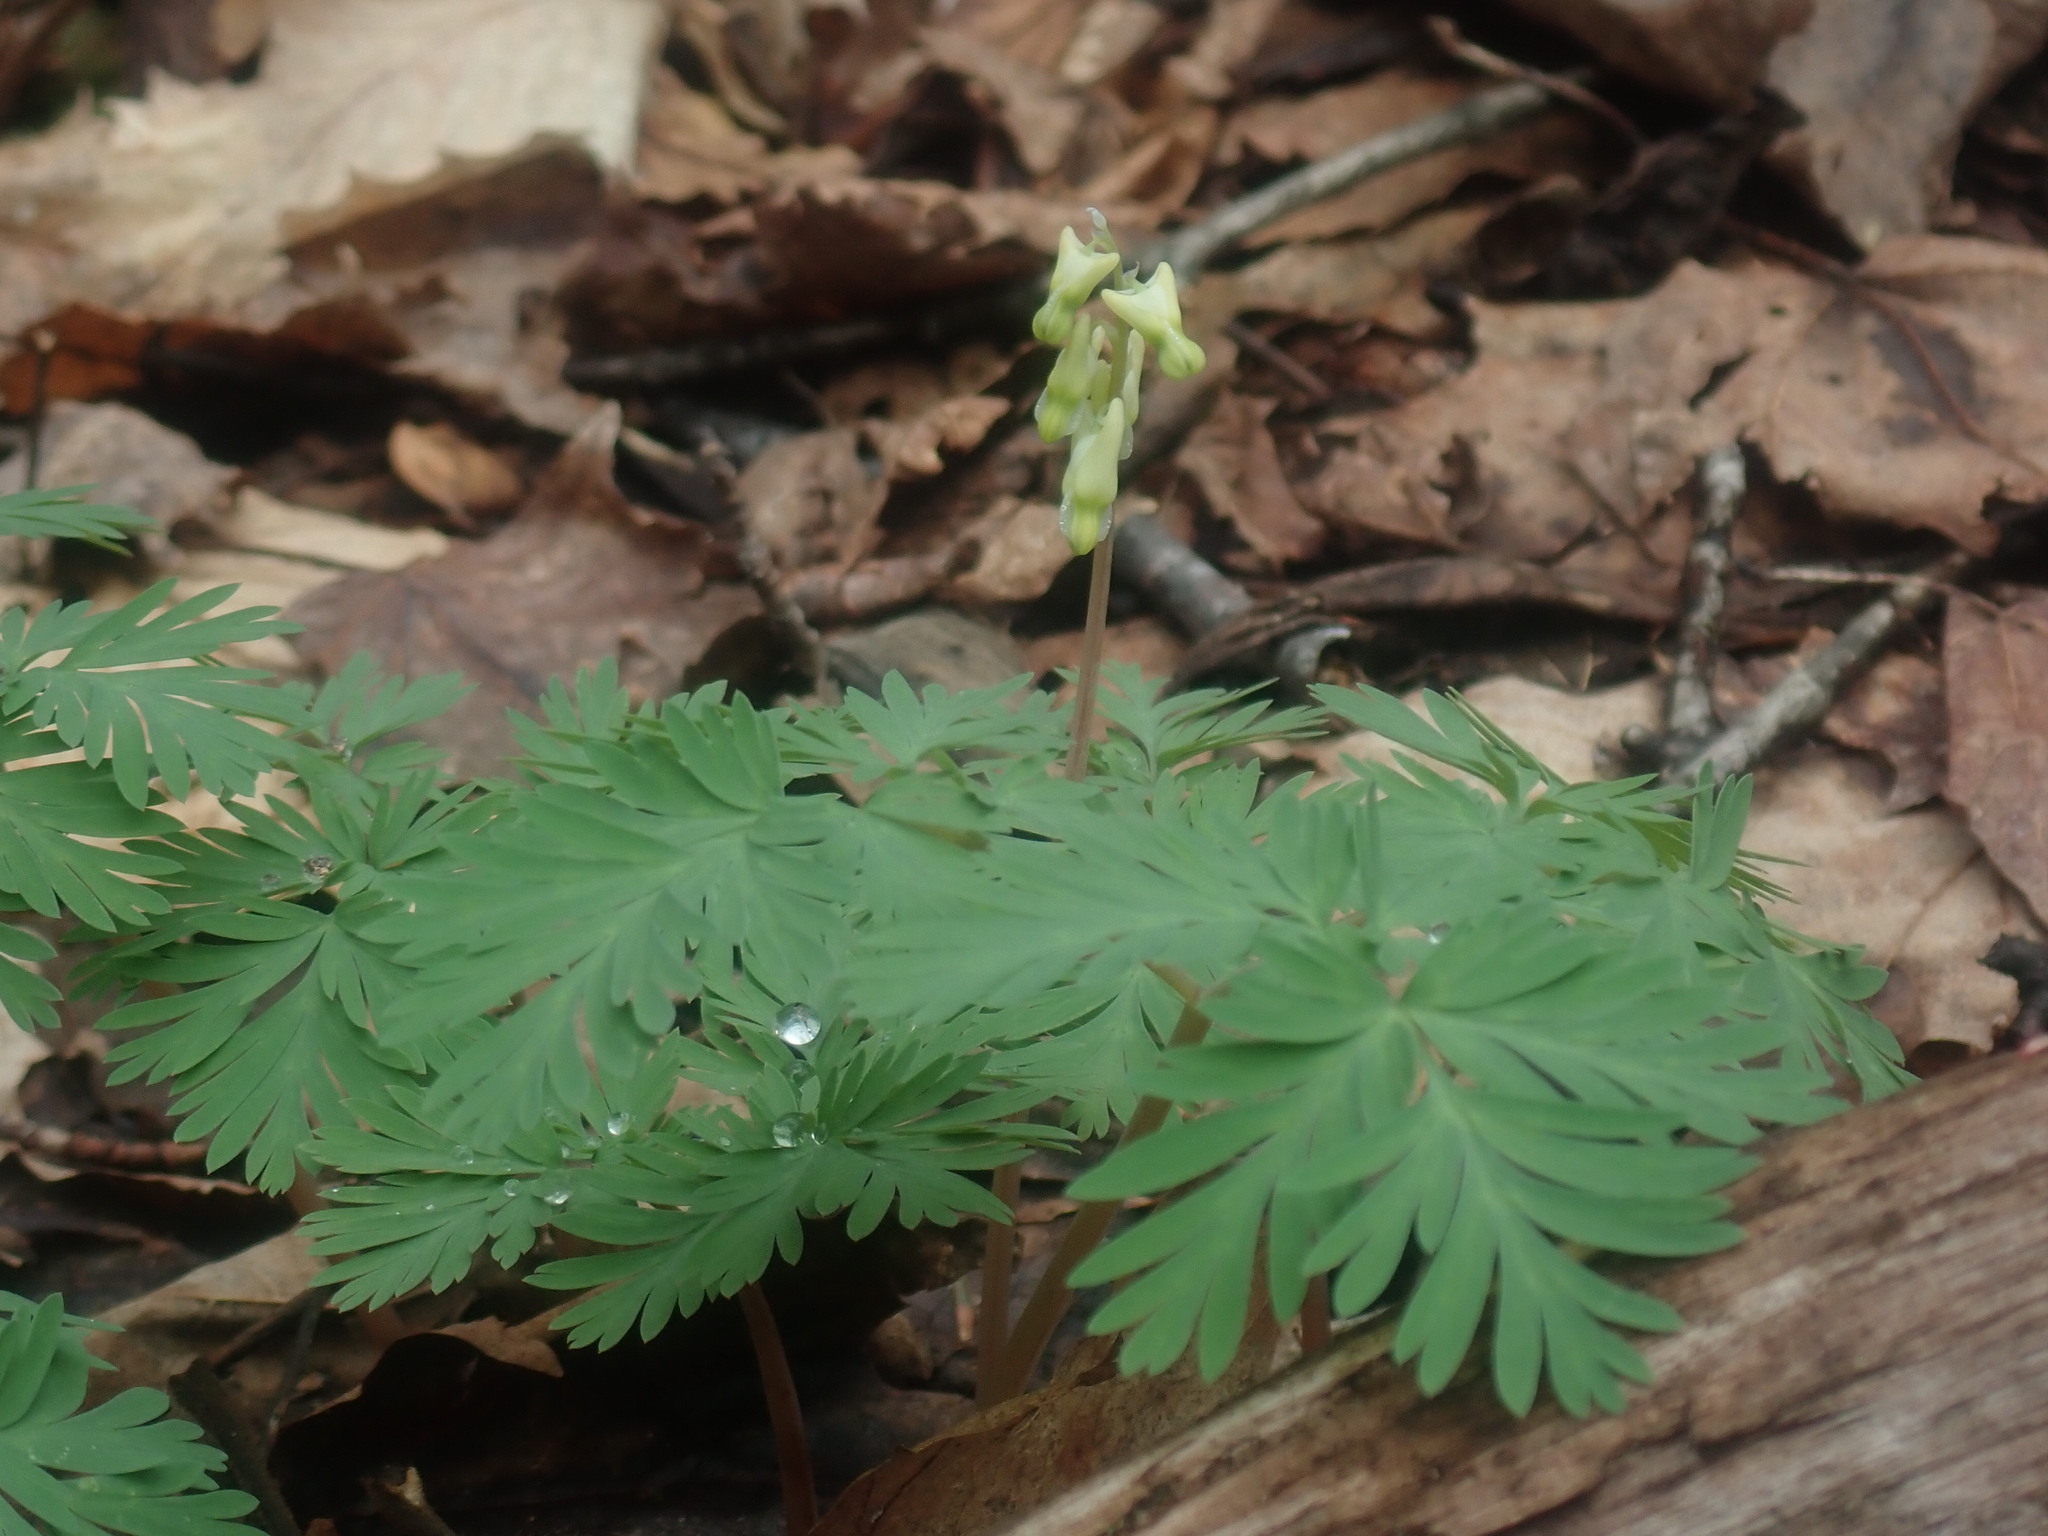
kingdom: Plantae
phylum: Tracheophyta
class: Magnoliopsida
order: Ranunculales
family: Papaveraceae
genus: Dicentra
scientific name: Dicentra cucullaria
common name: Dutchman's breeches
